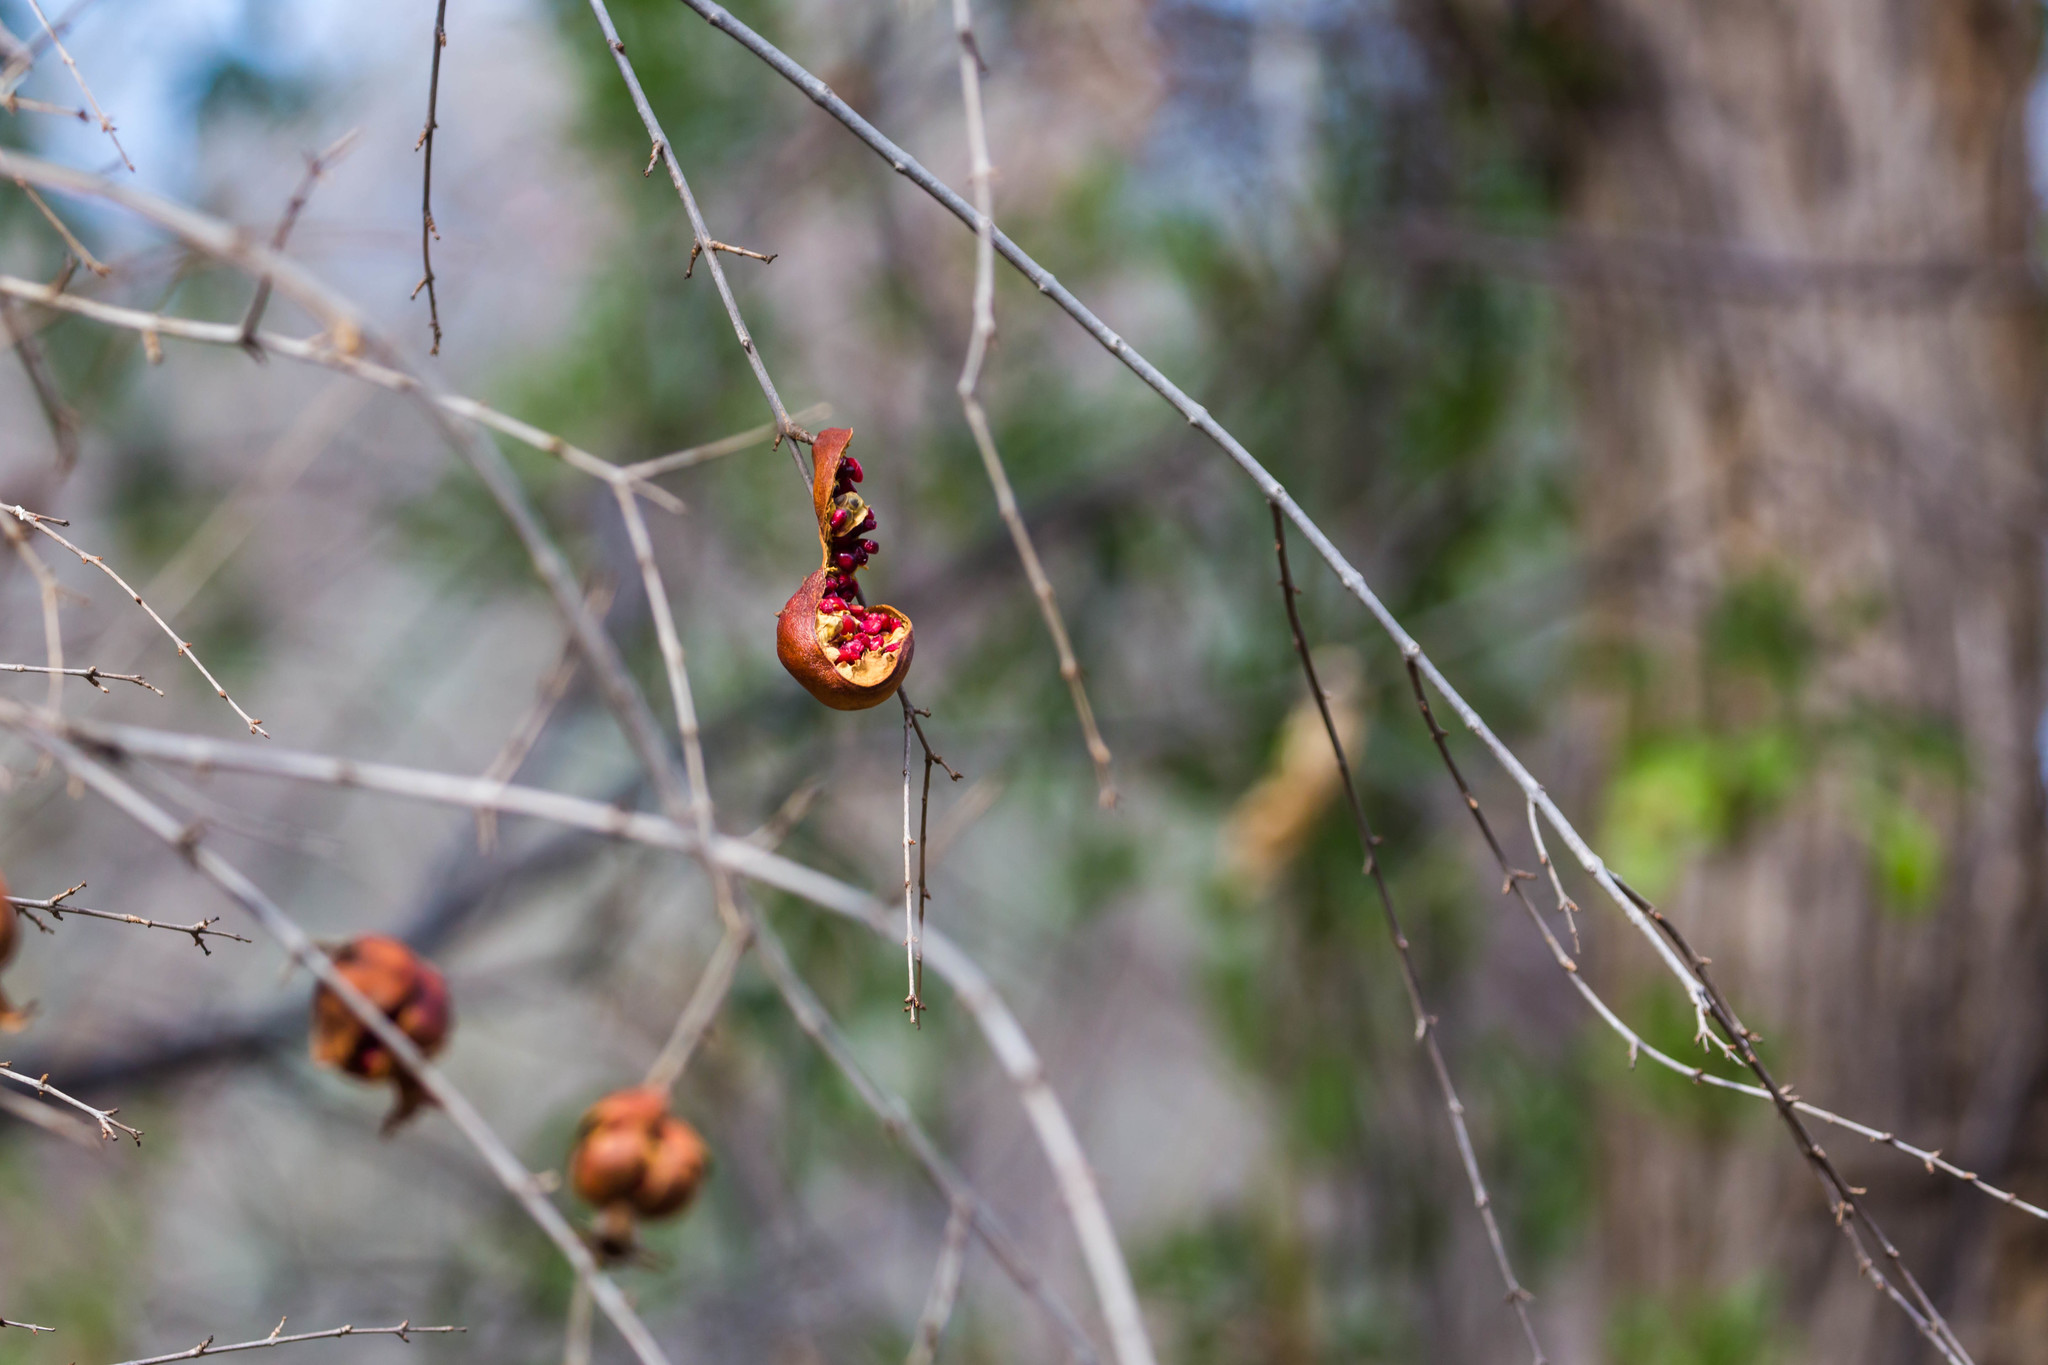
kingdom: Plantae
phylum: Tracheophyta
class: Magnoliopsida
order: Myrtales
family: Lythraceae
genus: Punica
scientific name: Punica granatum
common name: Pomegranate
